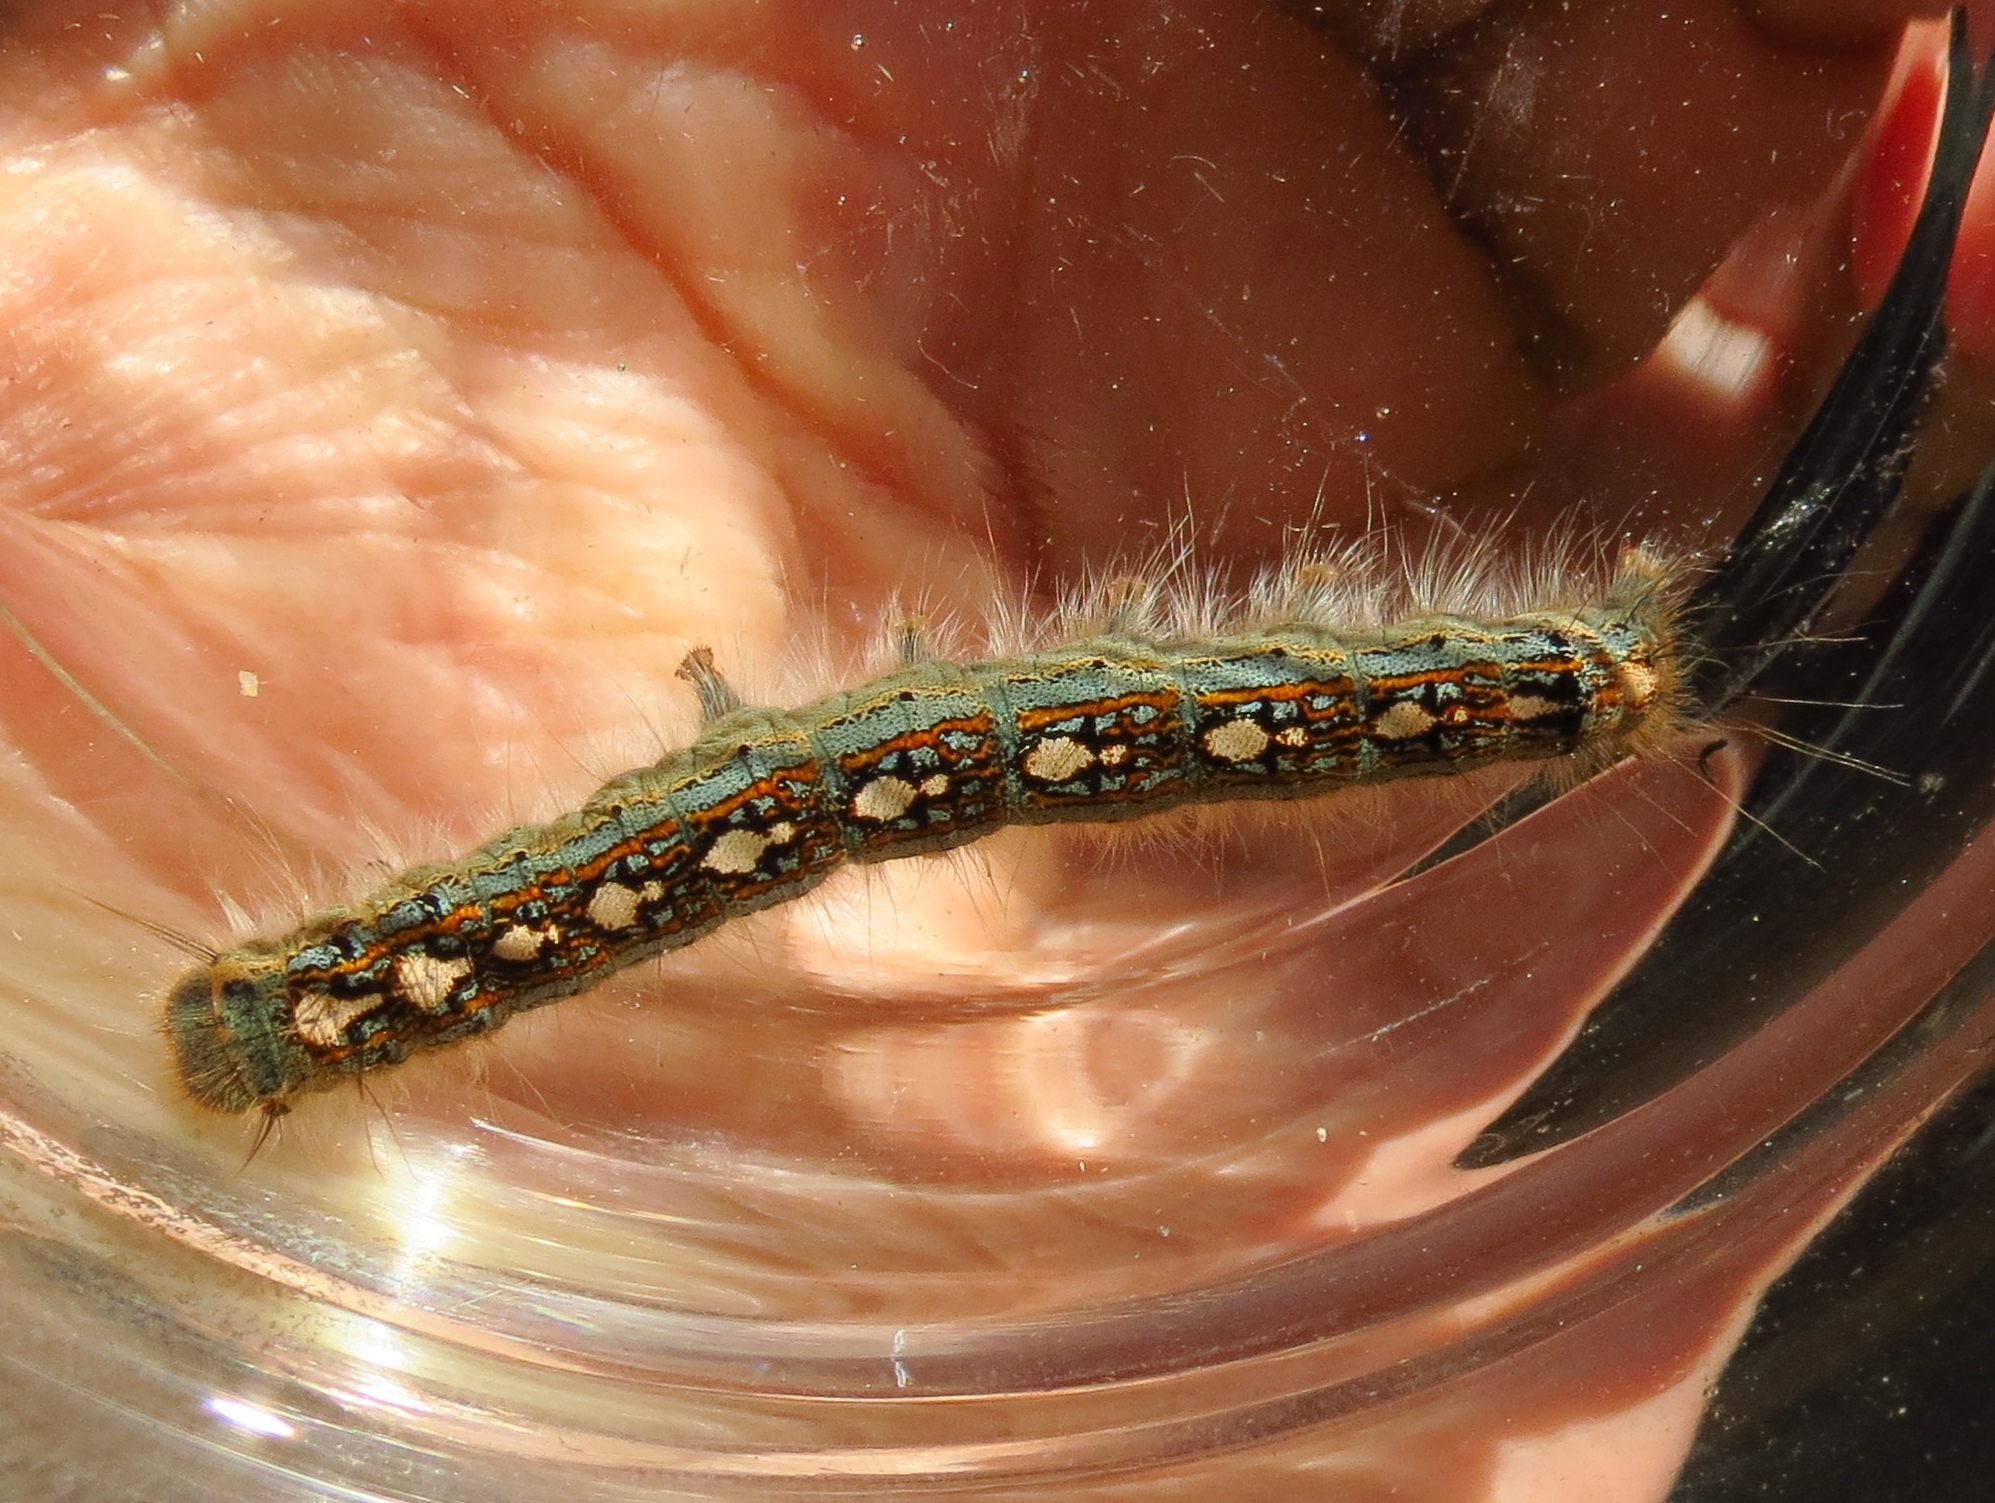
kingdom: Animalia
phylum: Arthropoda
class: Insecta
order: Lepidoptera
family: Lasiocampidae
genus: Malacosoma
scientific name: Malacosoma disstria
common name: Forest tent caterpillar
